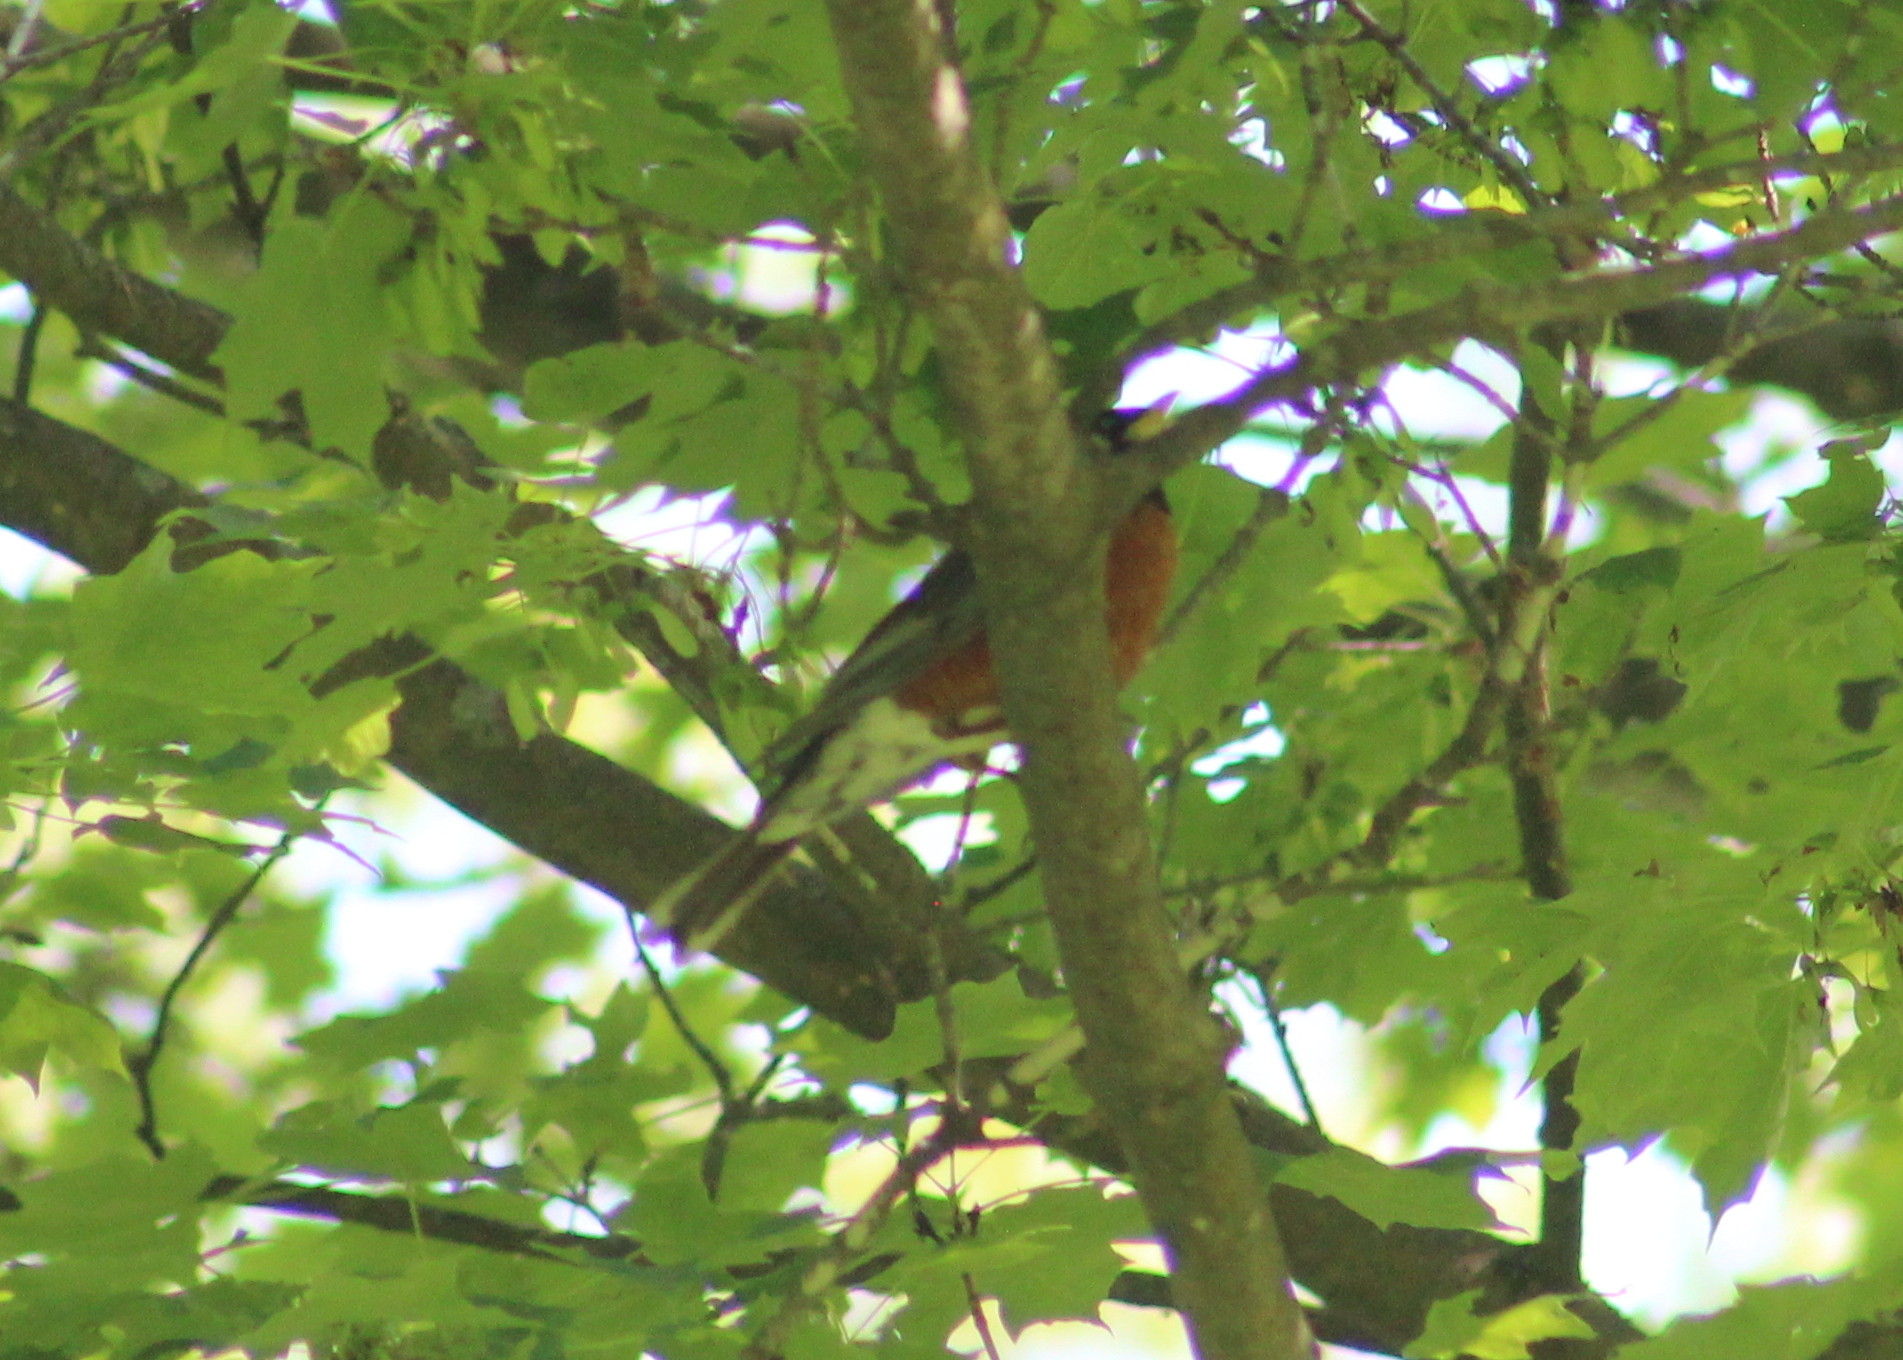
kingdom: Animalia
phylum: Chordata
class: Aves
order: Passeriformes
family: Turdidae
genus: Turdus
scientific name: Turdus migratorius
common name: American robin
